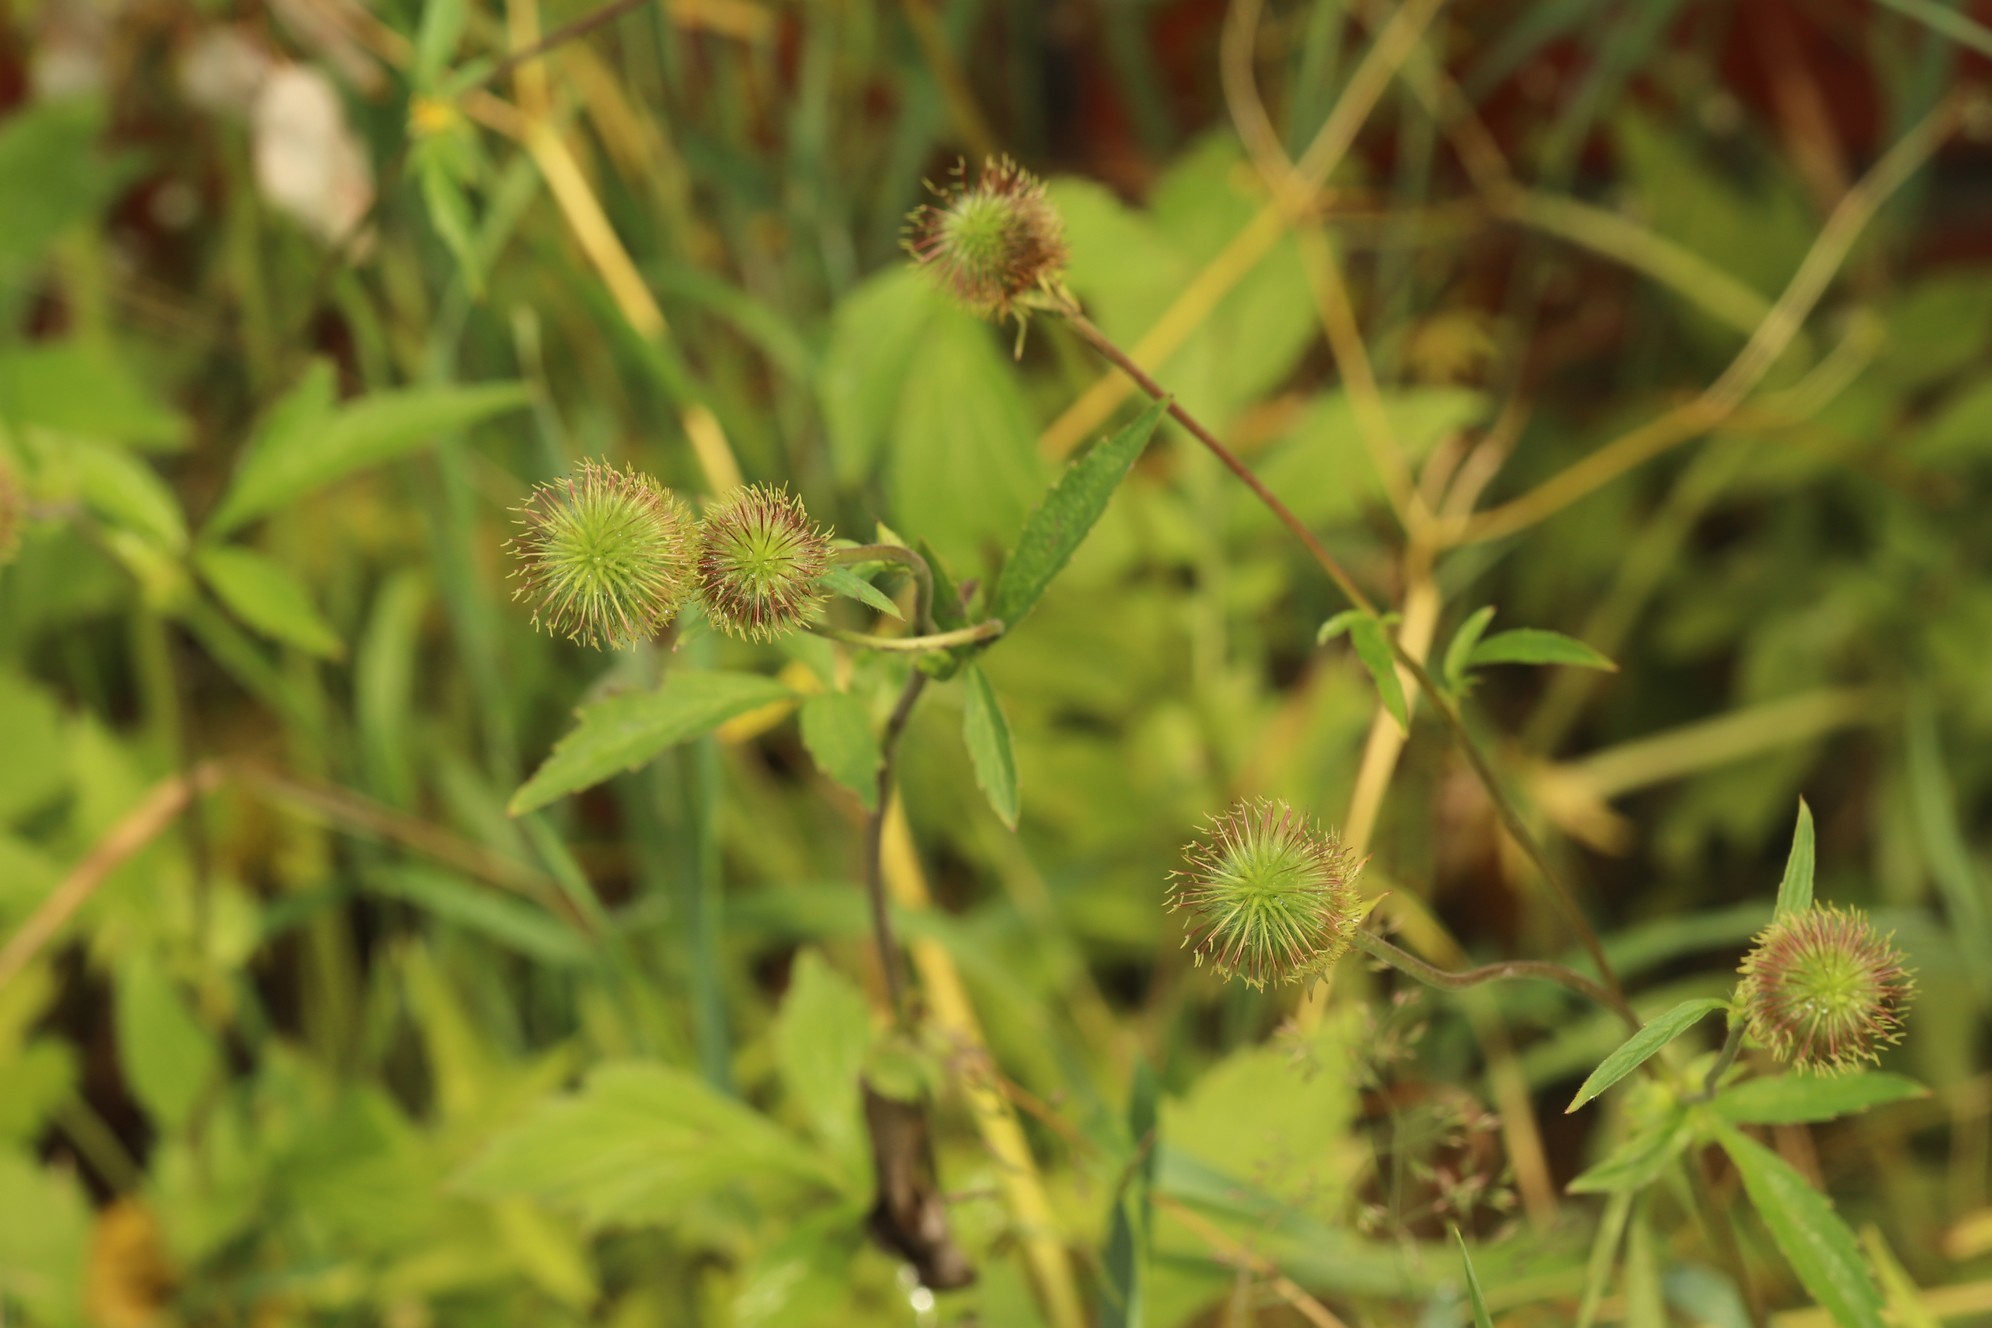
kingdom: Plantae
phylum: Tracheophyta
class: Magnoliopsida
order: Rosales
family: Rosaceae
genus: Geum
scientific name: Geum aleppicum
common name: Yellow avens
